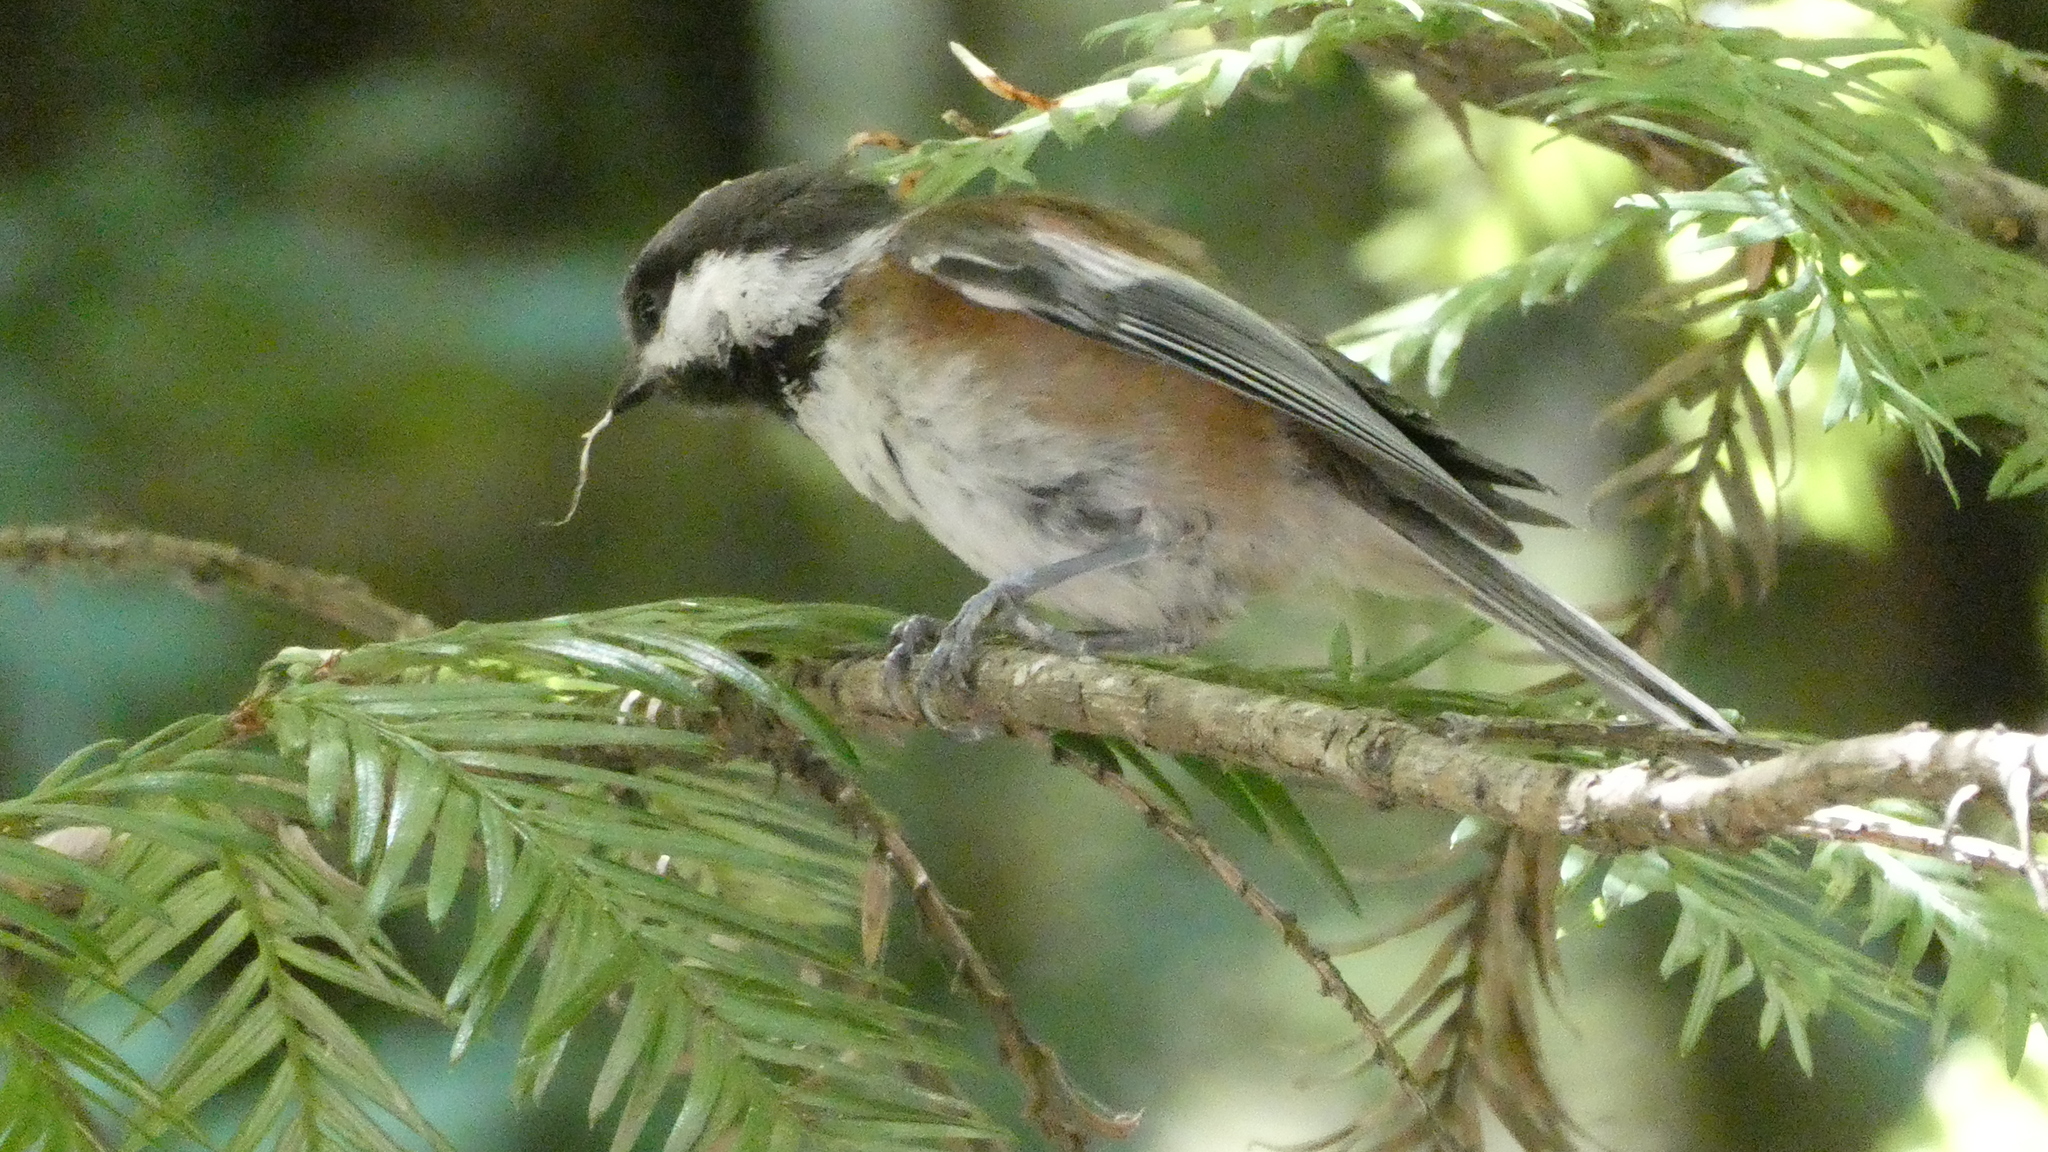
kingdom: Animalia
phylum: Chordata
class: Aves
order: Passeriformes
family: Paridae
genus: Poecile
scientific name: Poecile rufescens
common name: Chestnut-backed chickadee
